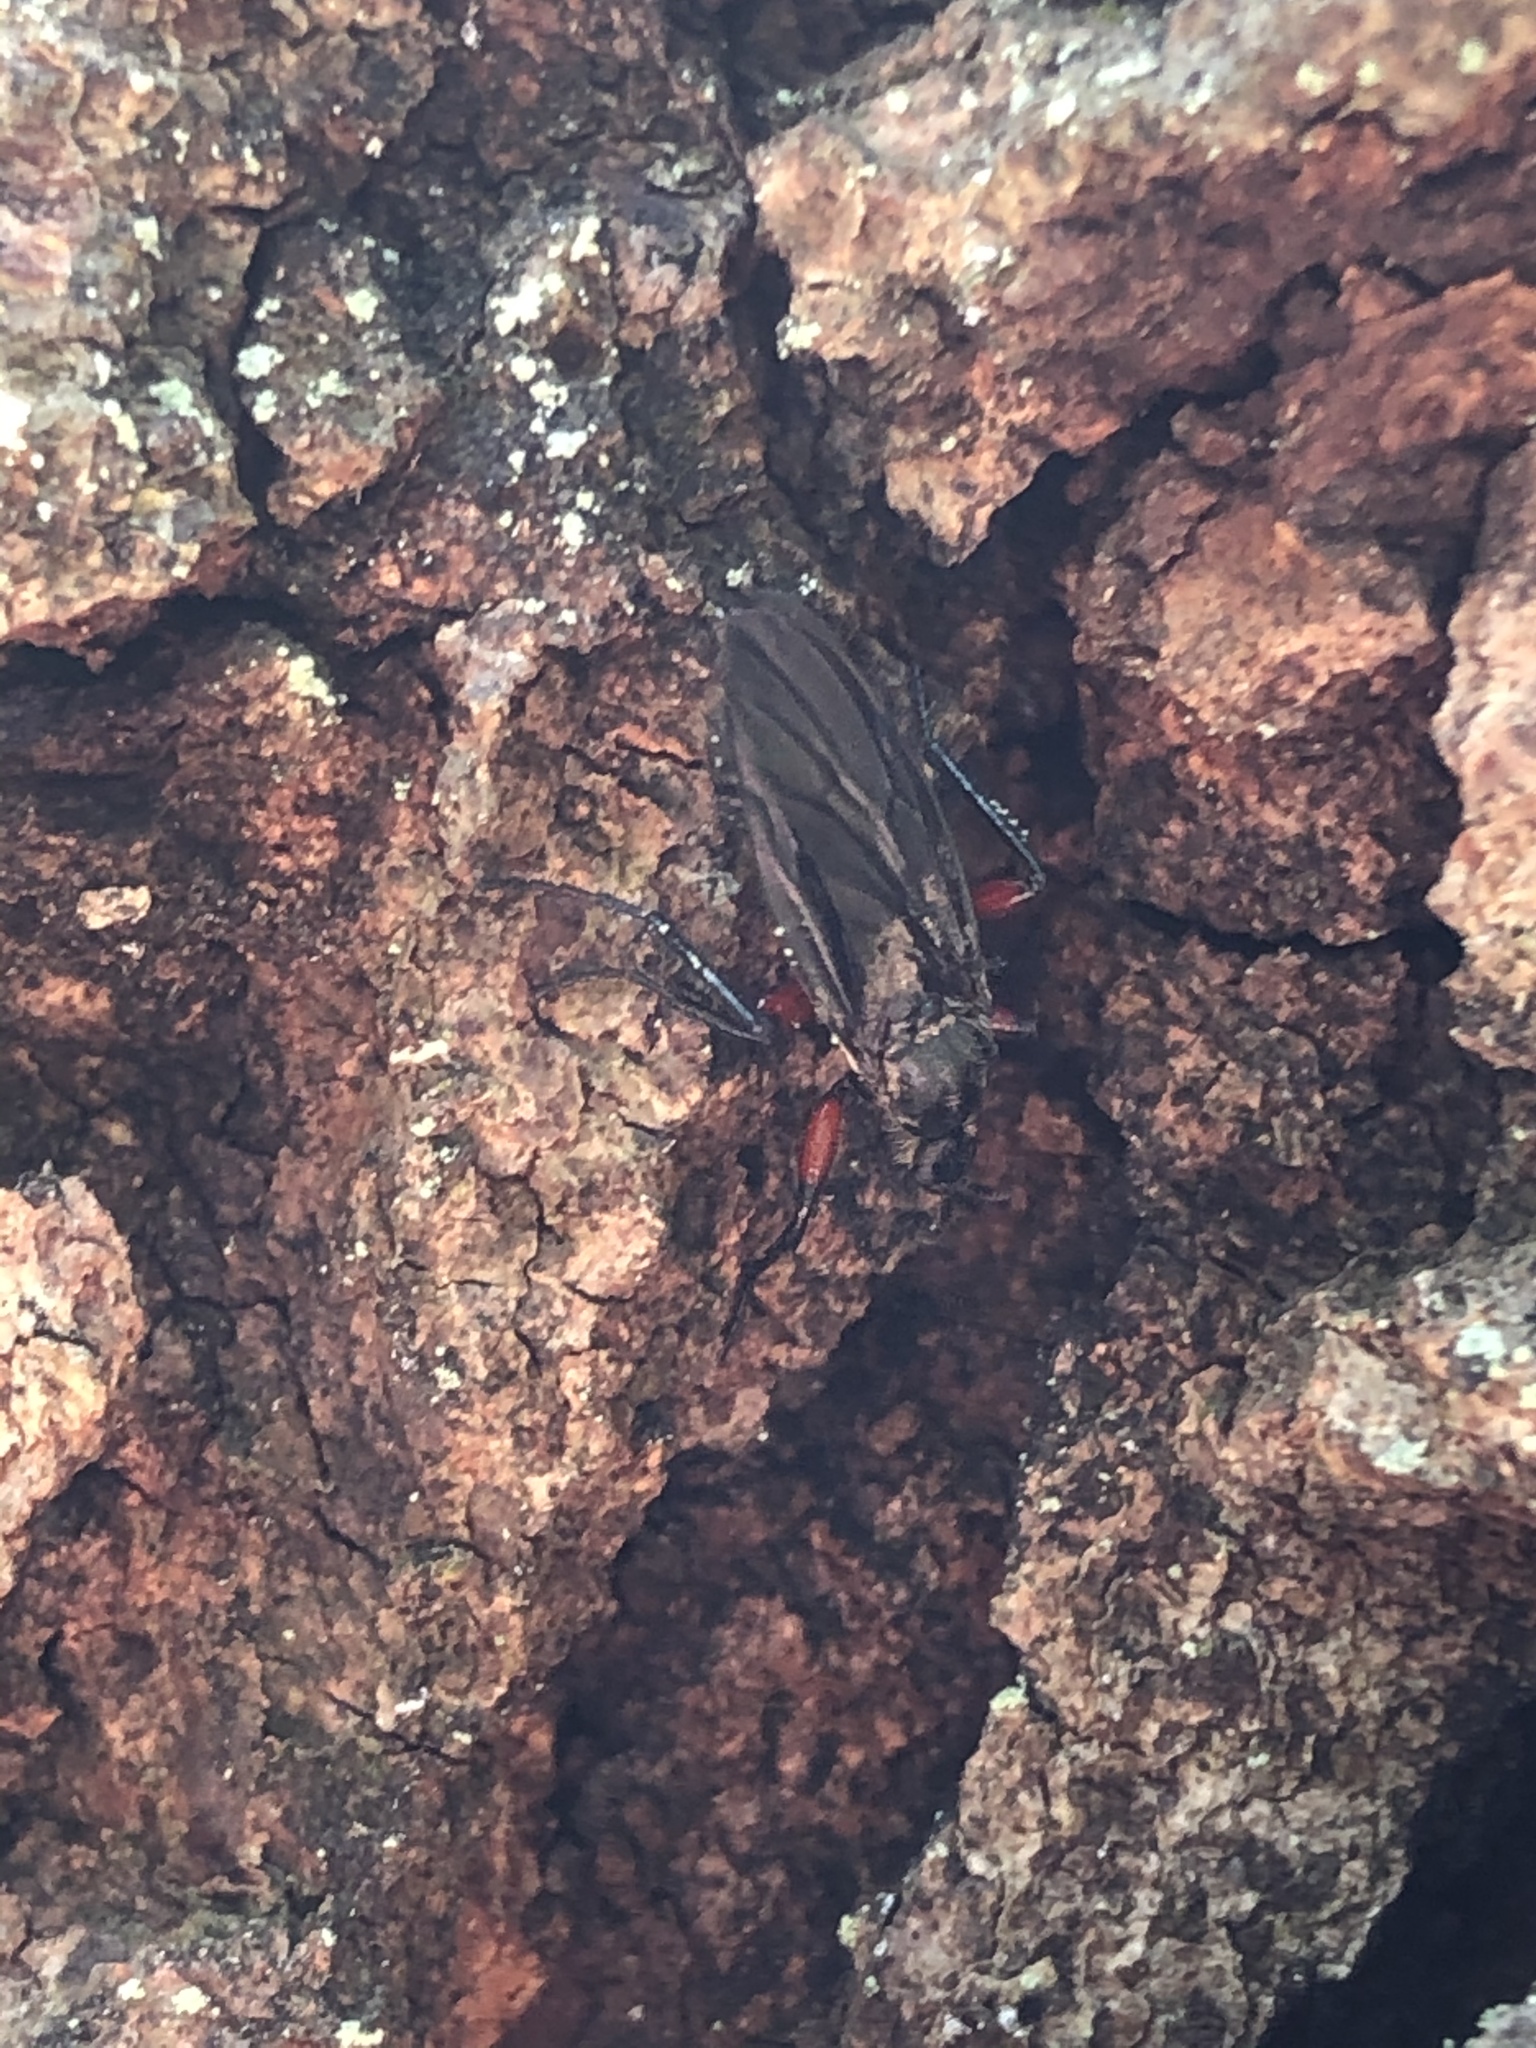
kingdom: Animalia
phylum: Arthropoda
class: Insecta
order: Diptera
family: Bibionidae
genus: Bibio
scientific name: Bibio femoratus
